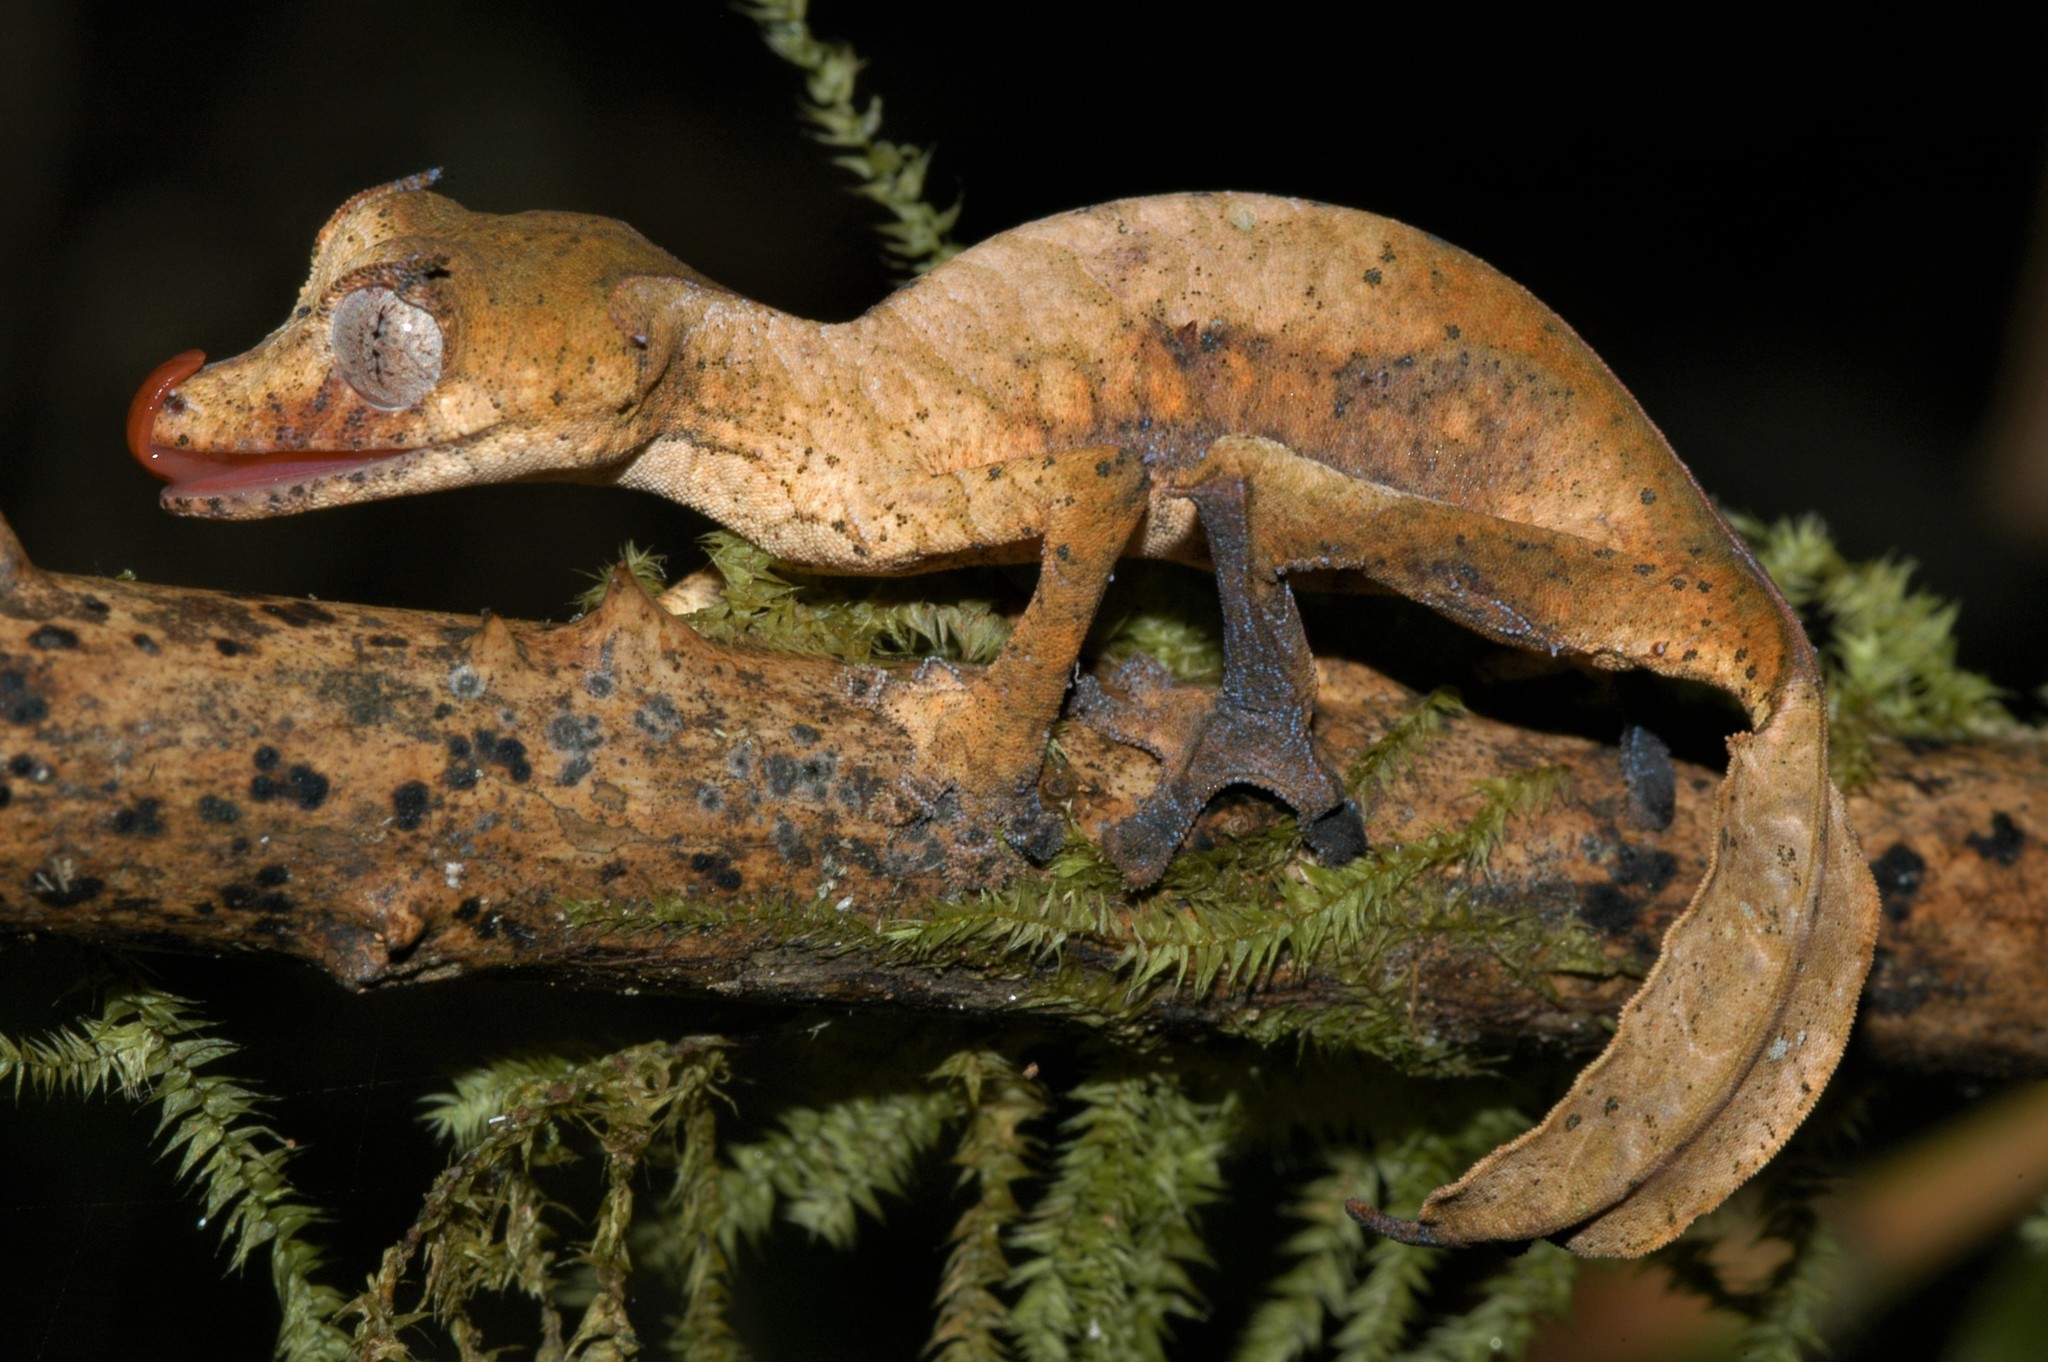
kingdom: Animalia
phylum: Chordata
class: Squamata
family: Gekkonidae
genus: Uroplatus
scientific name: Uroplatus phantasticus
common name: Phantastic leaf-tailed gecko
